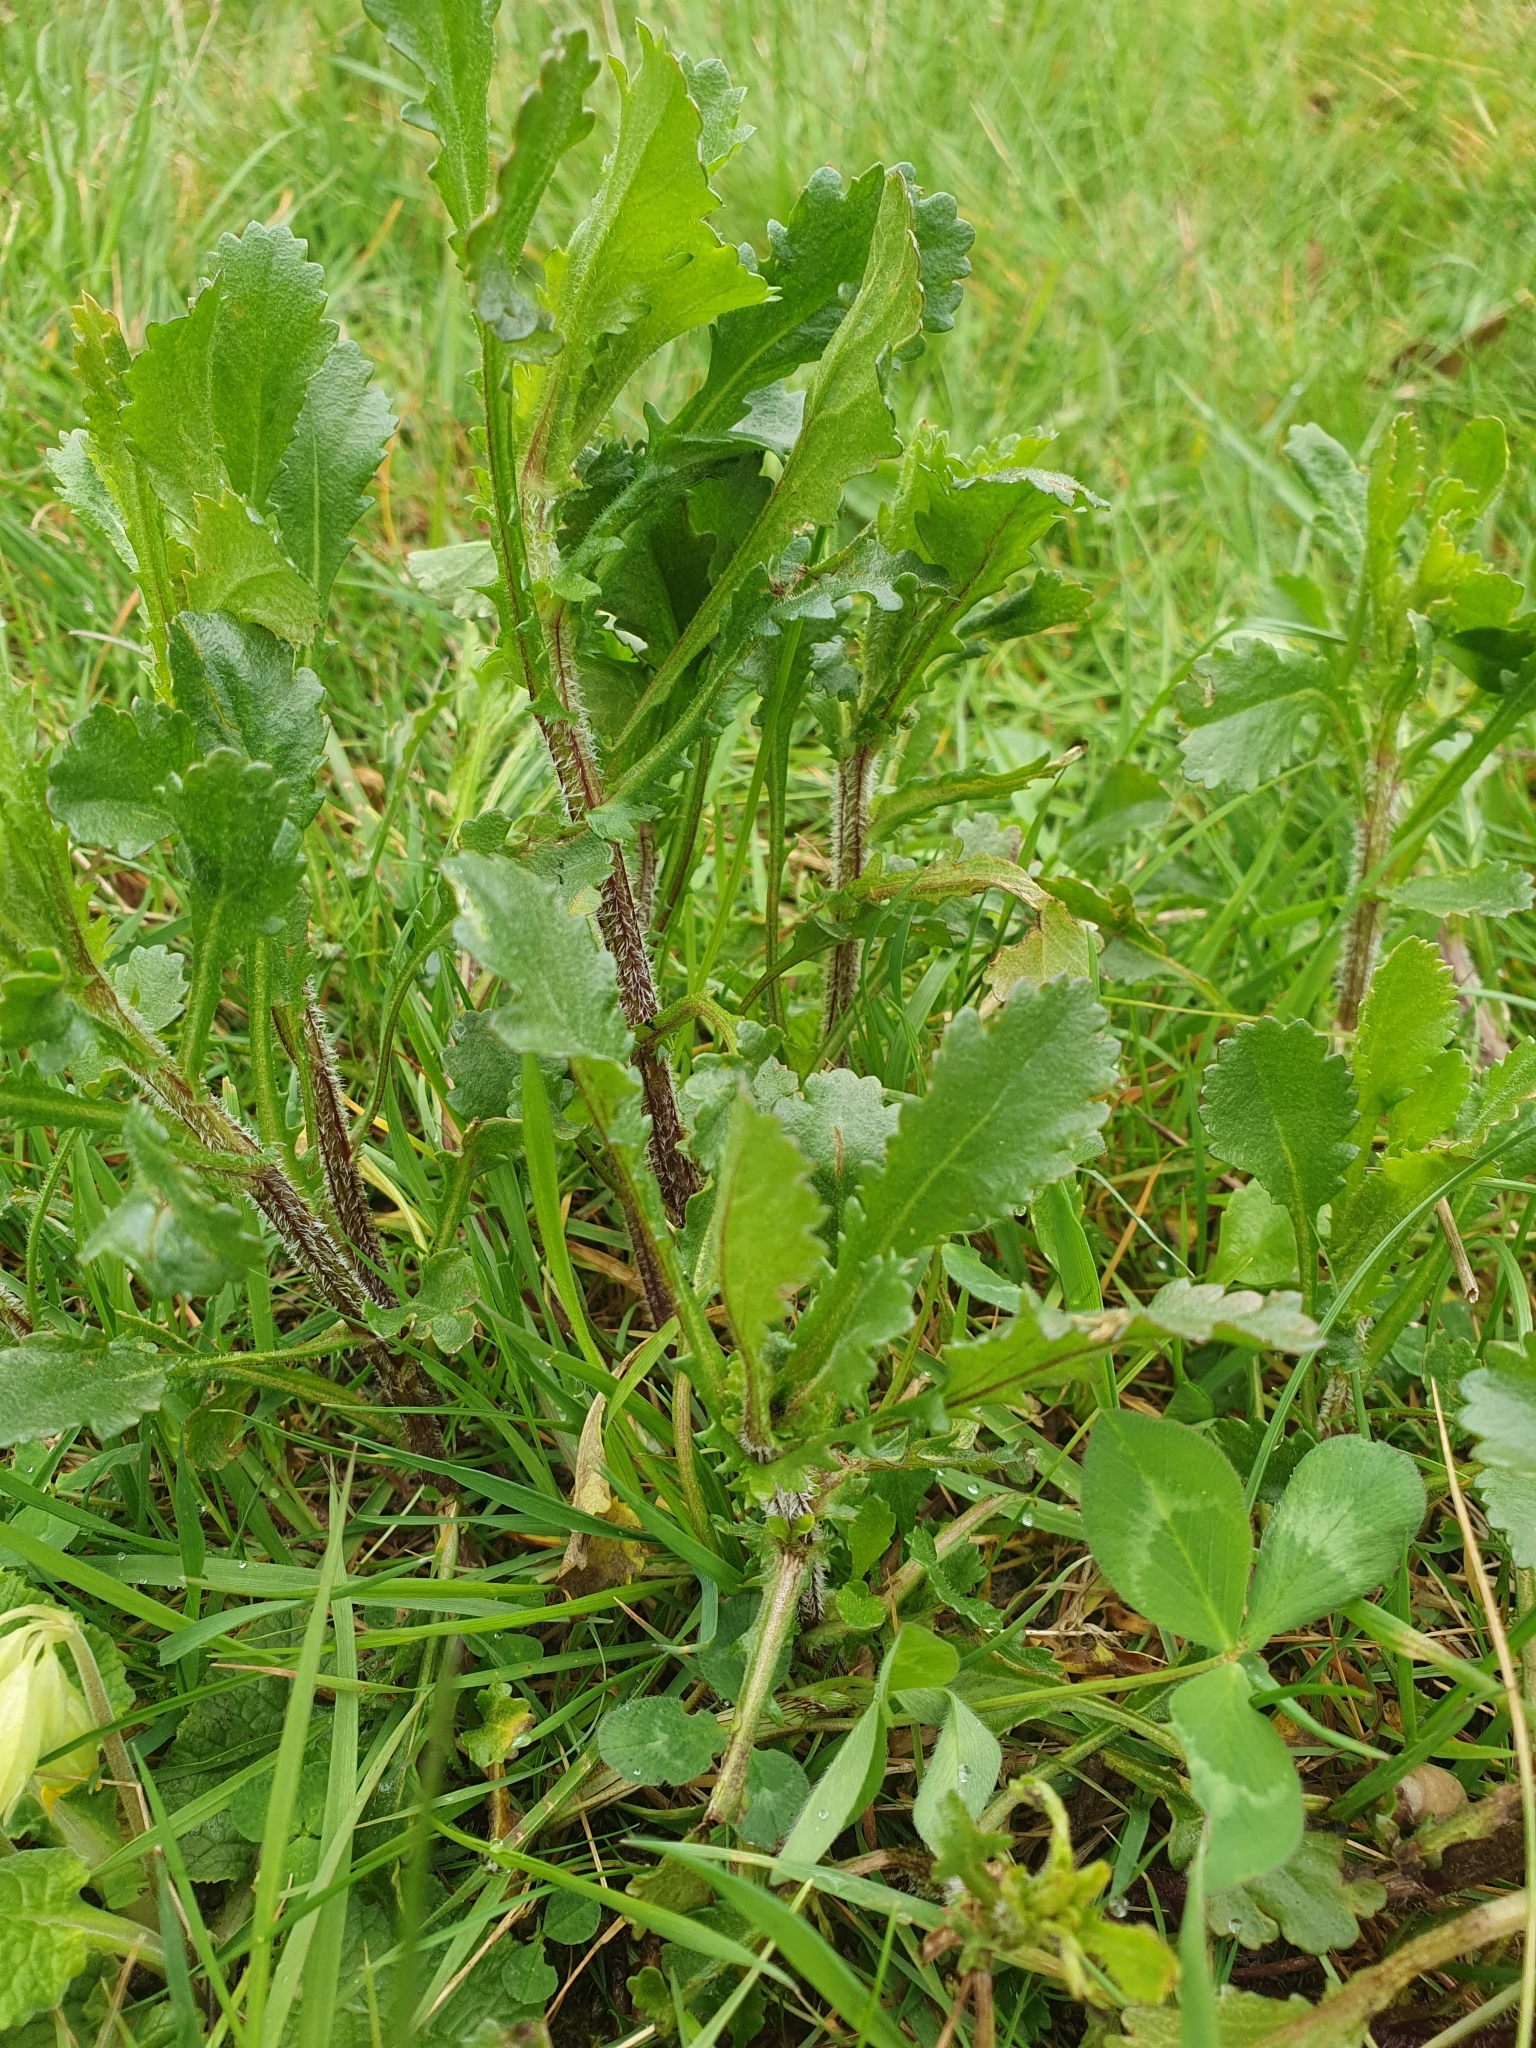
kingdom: Plantae
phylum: Tracheophyta
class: Magnoliopsida
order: Asterales
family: Asteraceae
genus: Leucanthemum
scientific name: Leucanthemum vulgare
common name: Oxeye daisy
